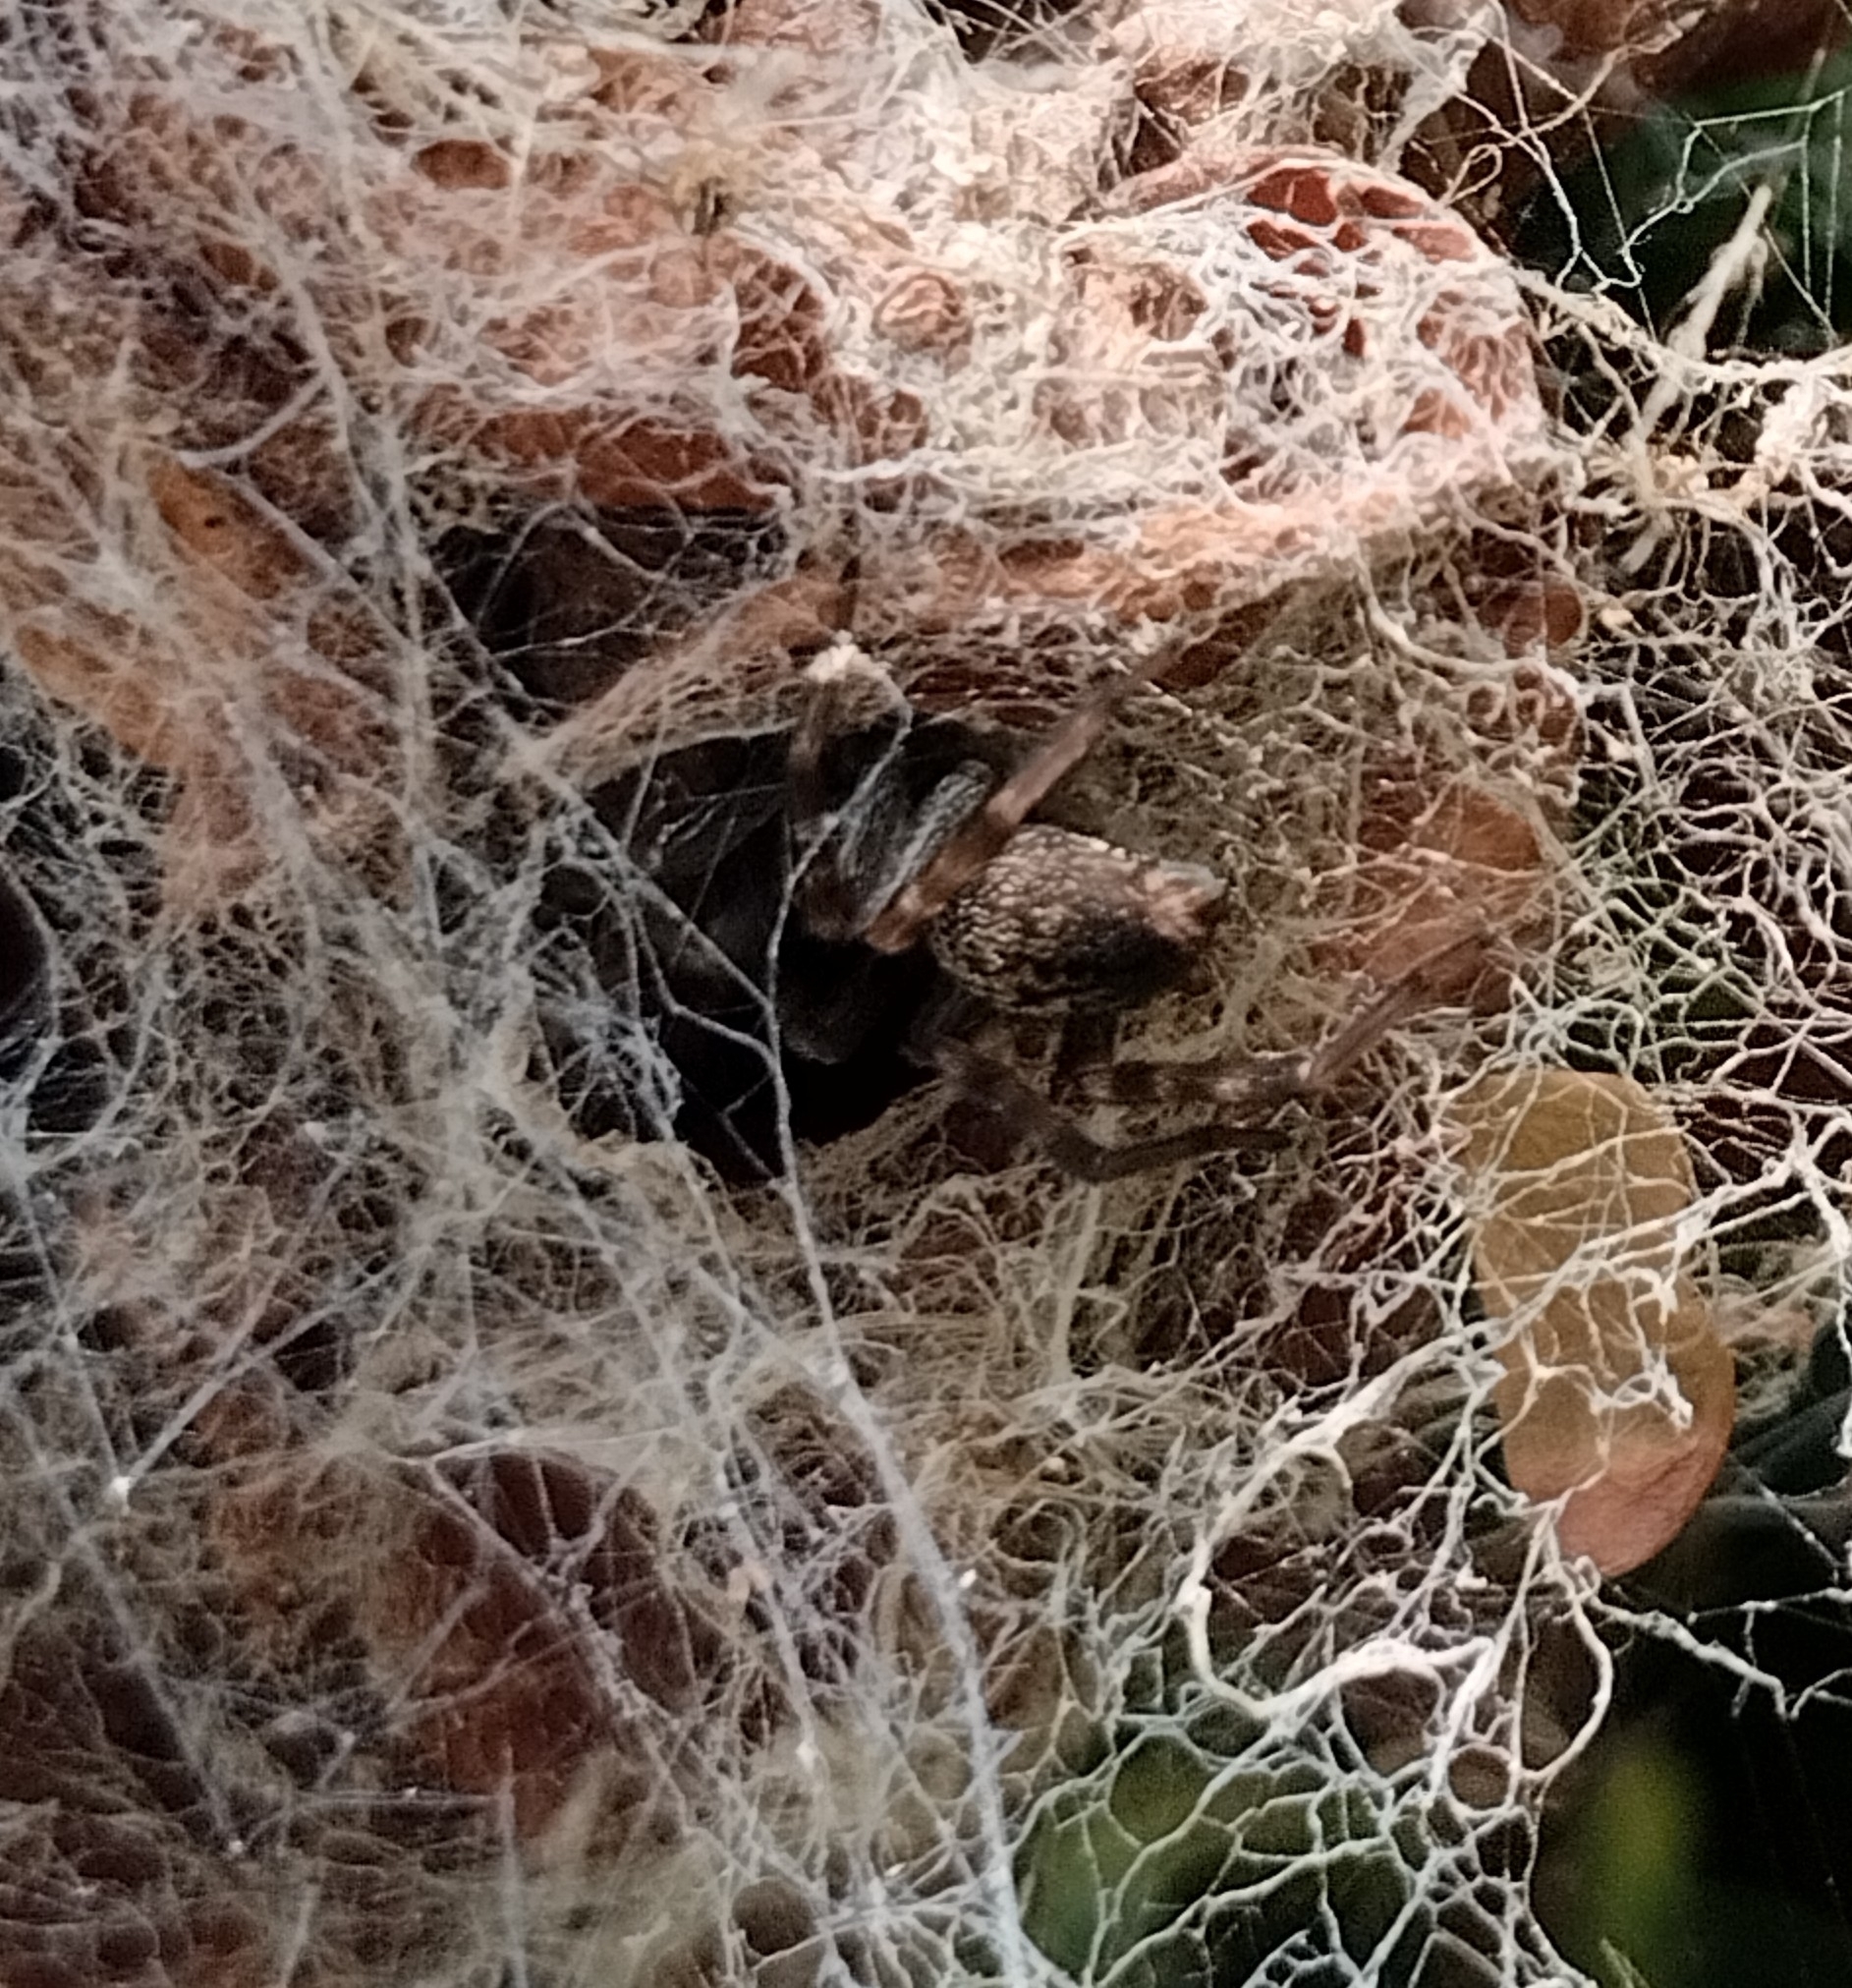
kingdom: Animalia
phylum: Arthropoda
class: Arachnida
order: Araneae
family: Desidae
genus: Badumna
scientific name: Badumna longinqua
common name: Gray house spider
